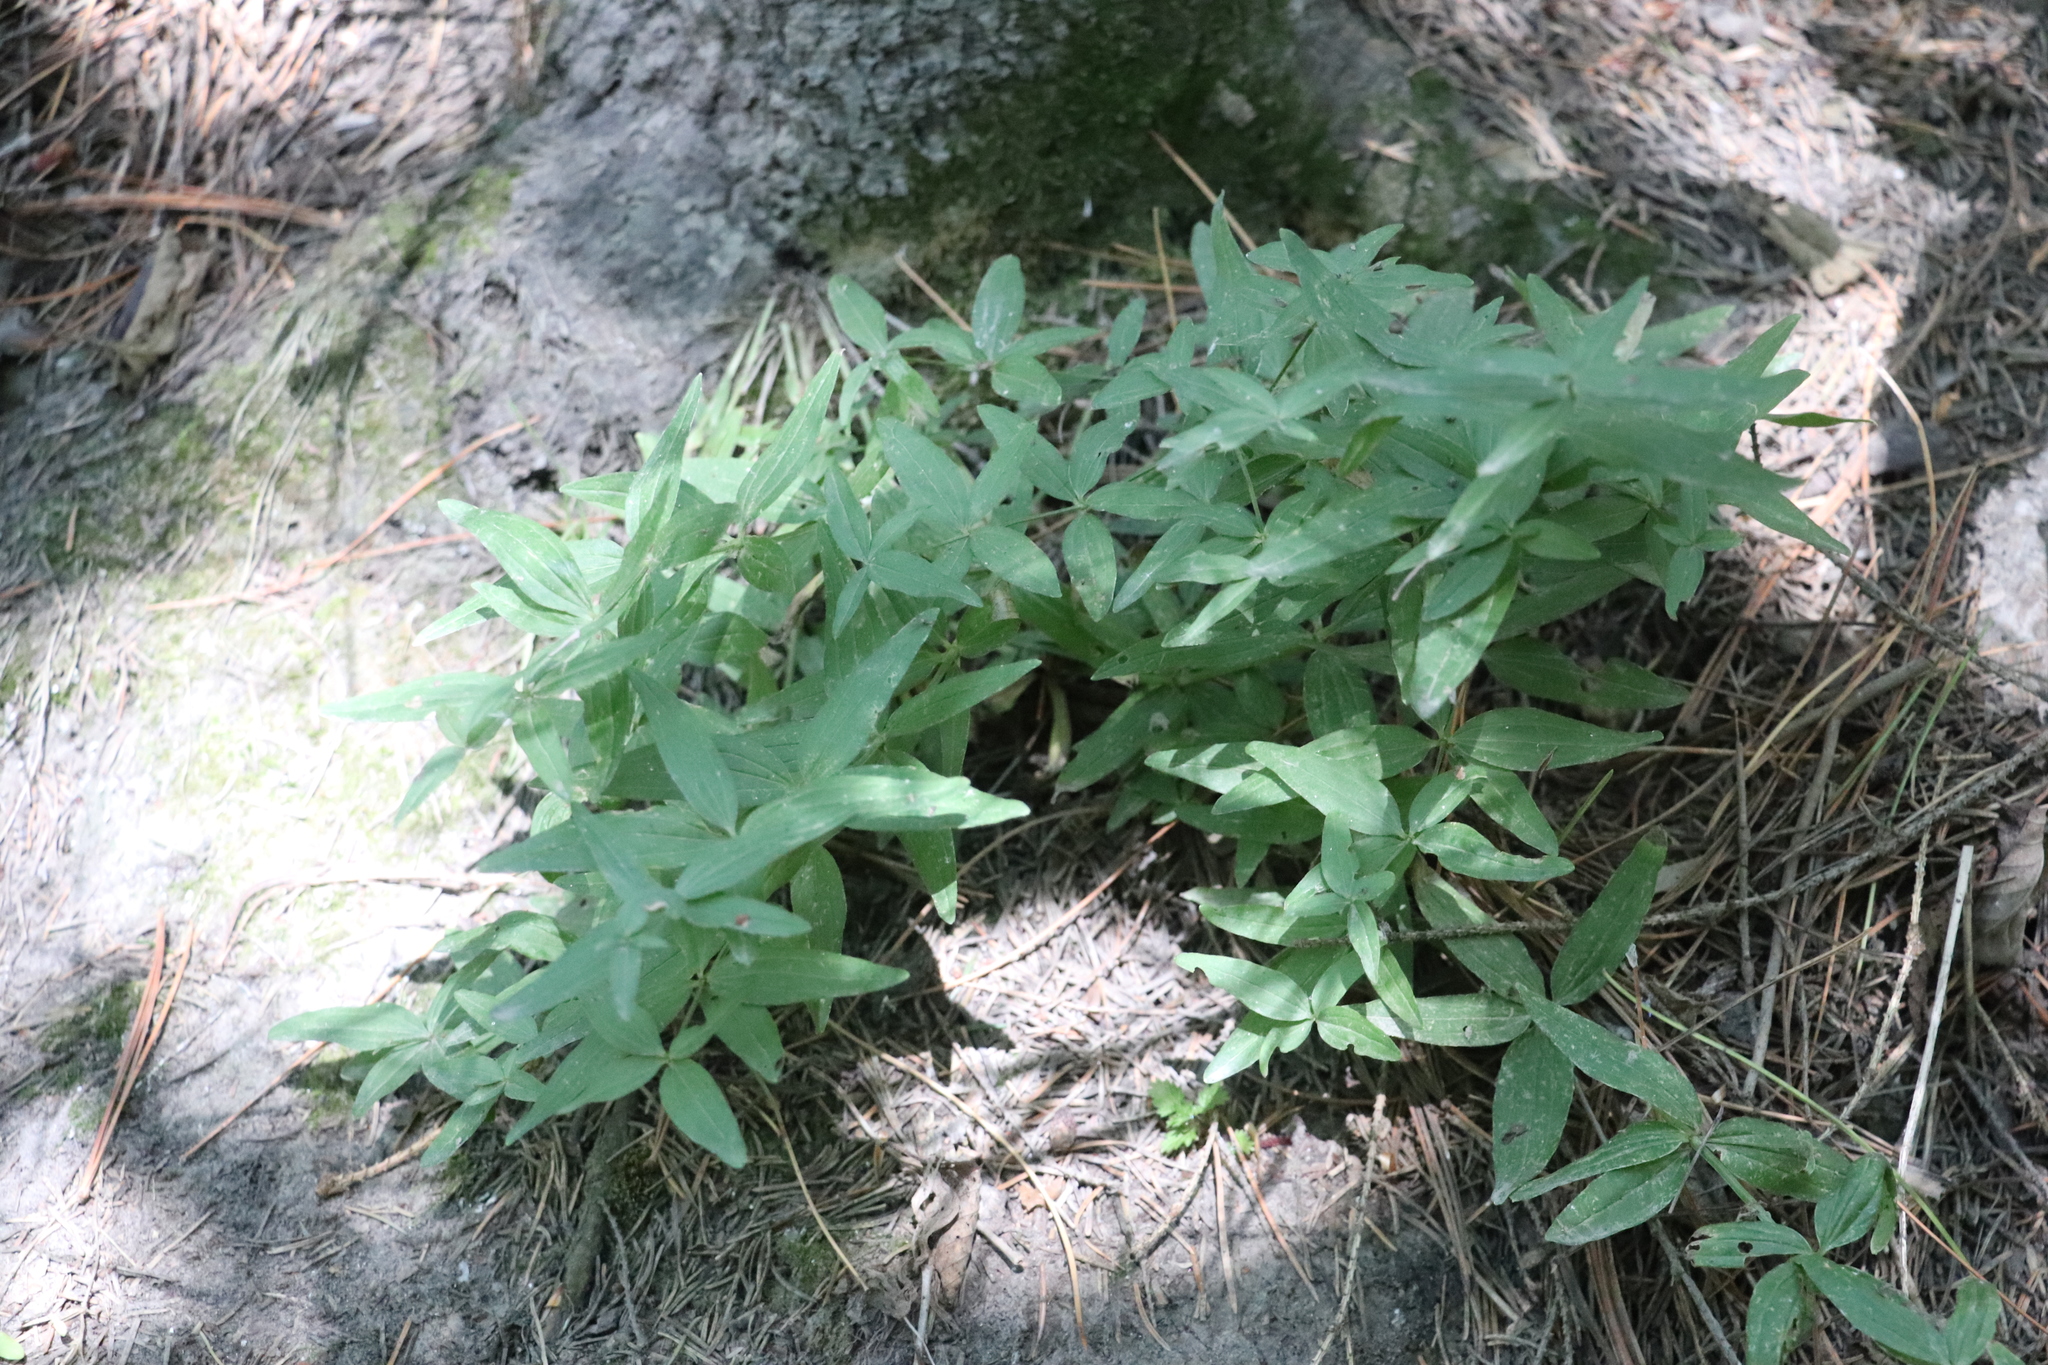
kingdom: Plantae
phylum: Tracheophyta
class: Magnoliopsida
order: Gentianales
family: Rubiaceae
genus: Galium
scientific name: Galium boreale
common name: Northern bedstraw
